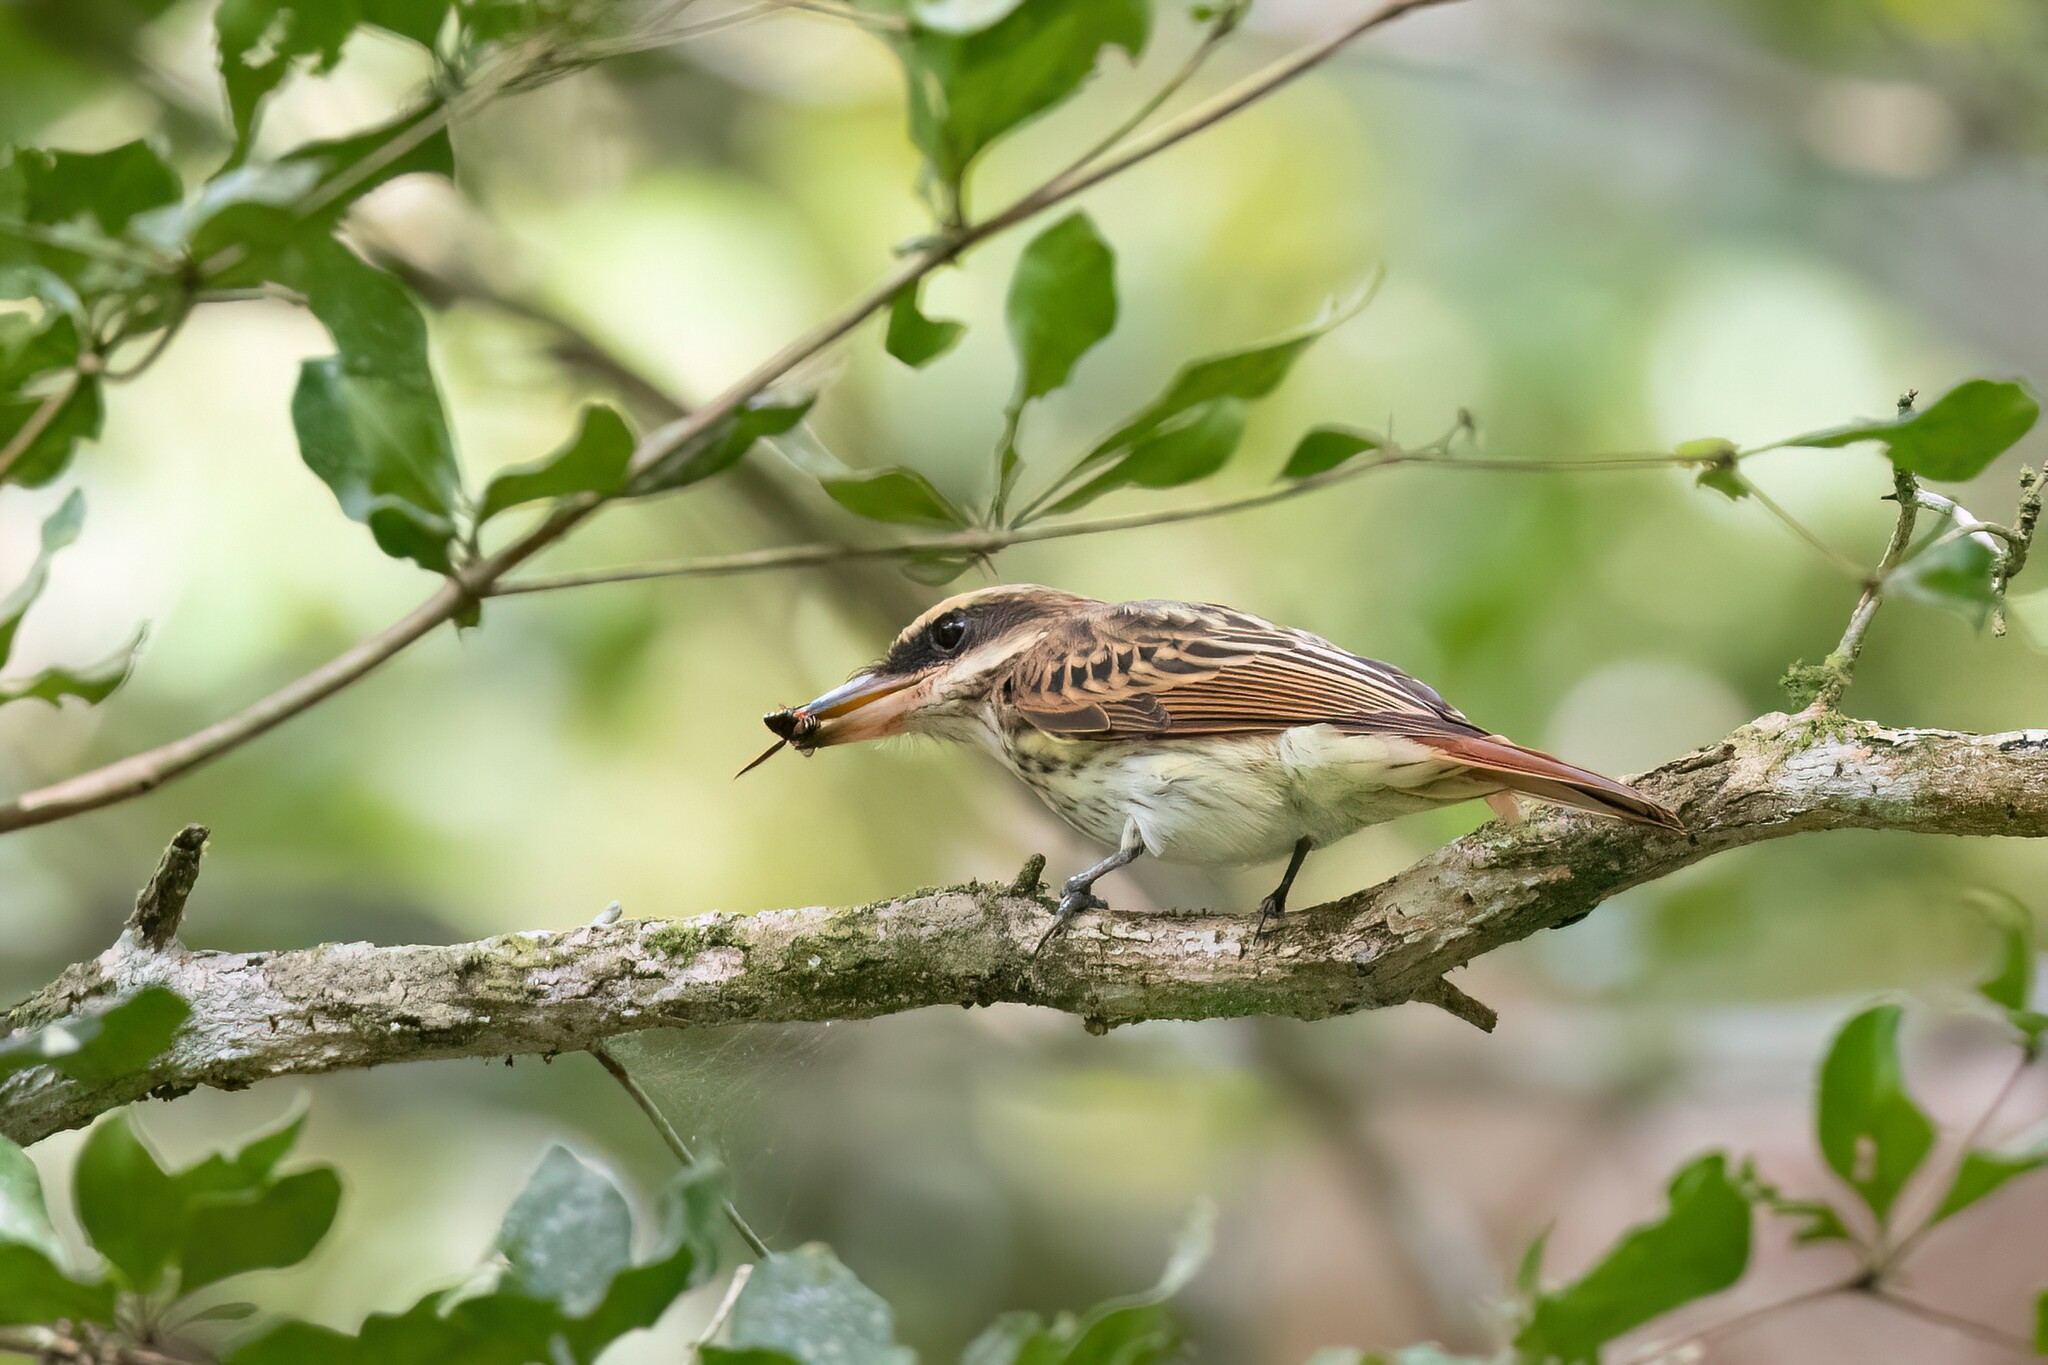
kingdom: Animalia
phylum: Chordata
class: Aves
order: Passeriformes
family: Tyrannidae
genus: Myiodynastes
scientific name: Myiodynastes maculatus
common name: Streaked flycatcher
